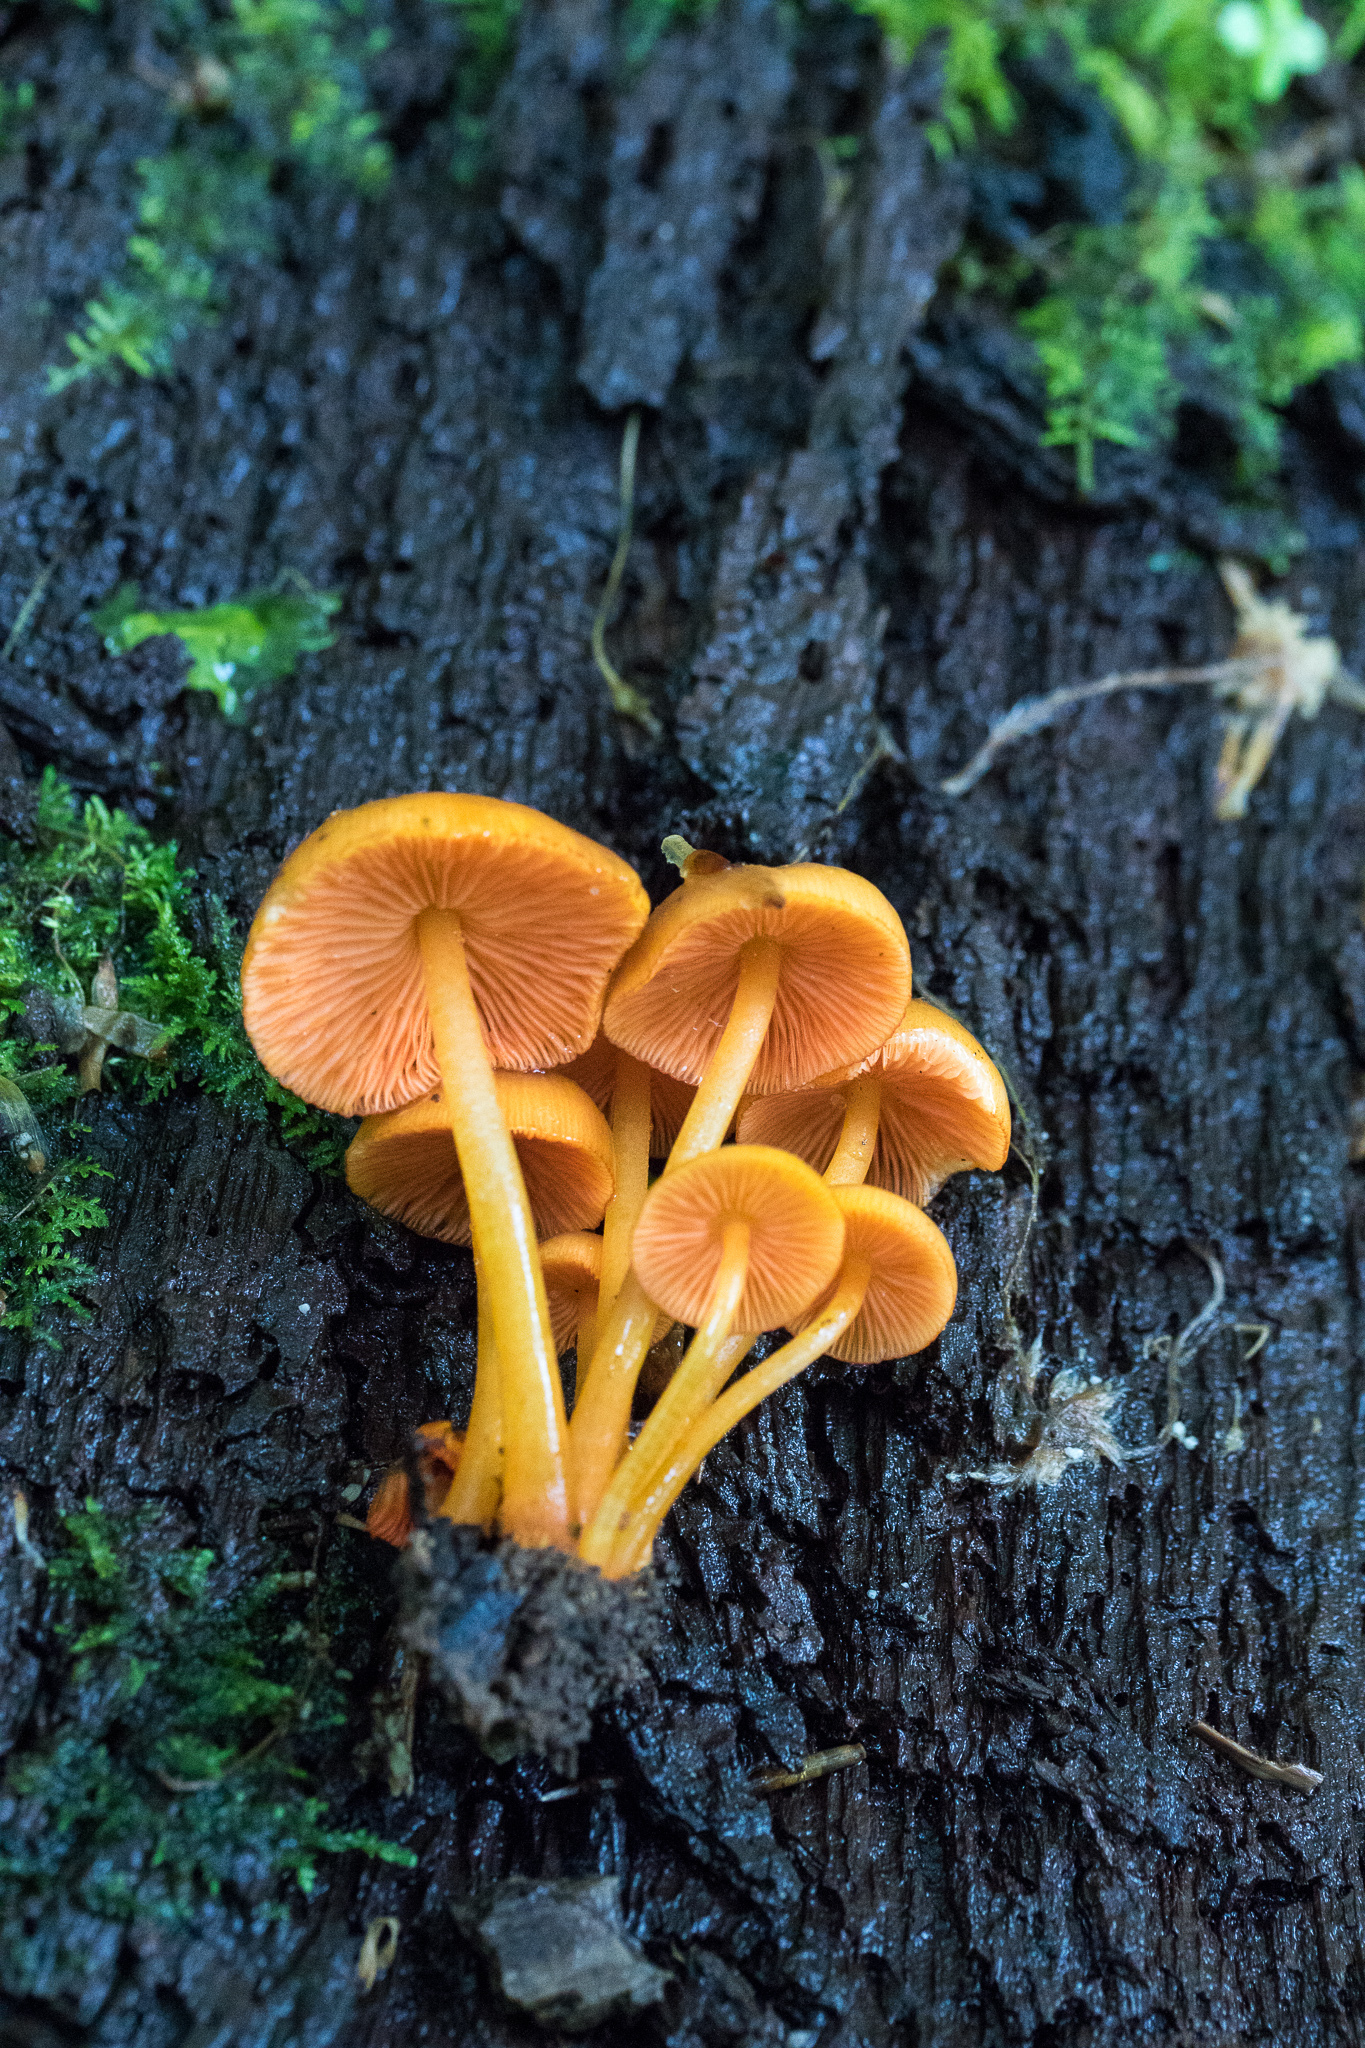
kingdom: Fungi
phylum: Basidiomycota
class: Agaricomycetes
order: Agaricales
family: Mycenaceae
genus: Mycena
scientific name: Mycena leaiana
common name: Orange mycena
